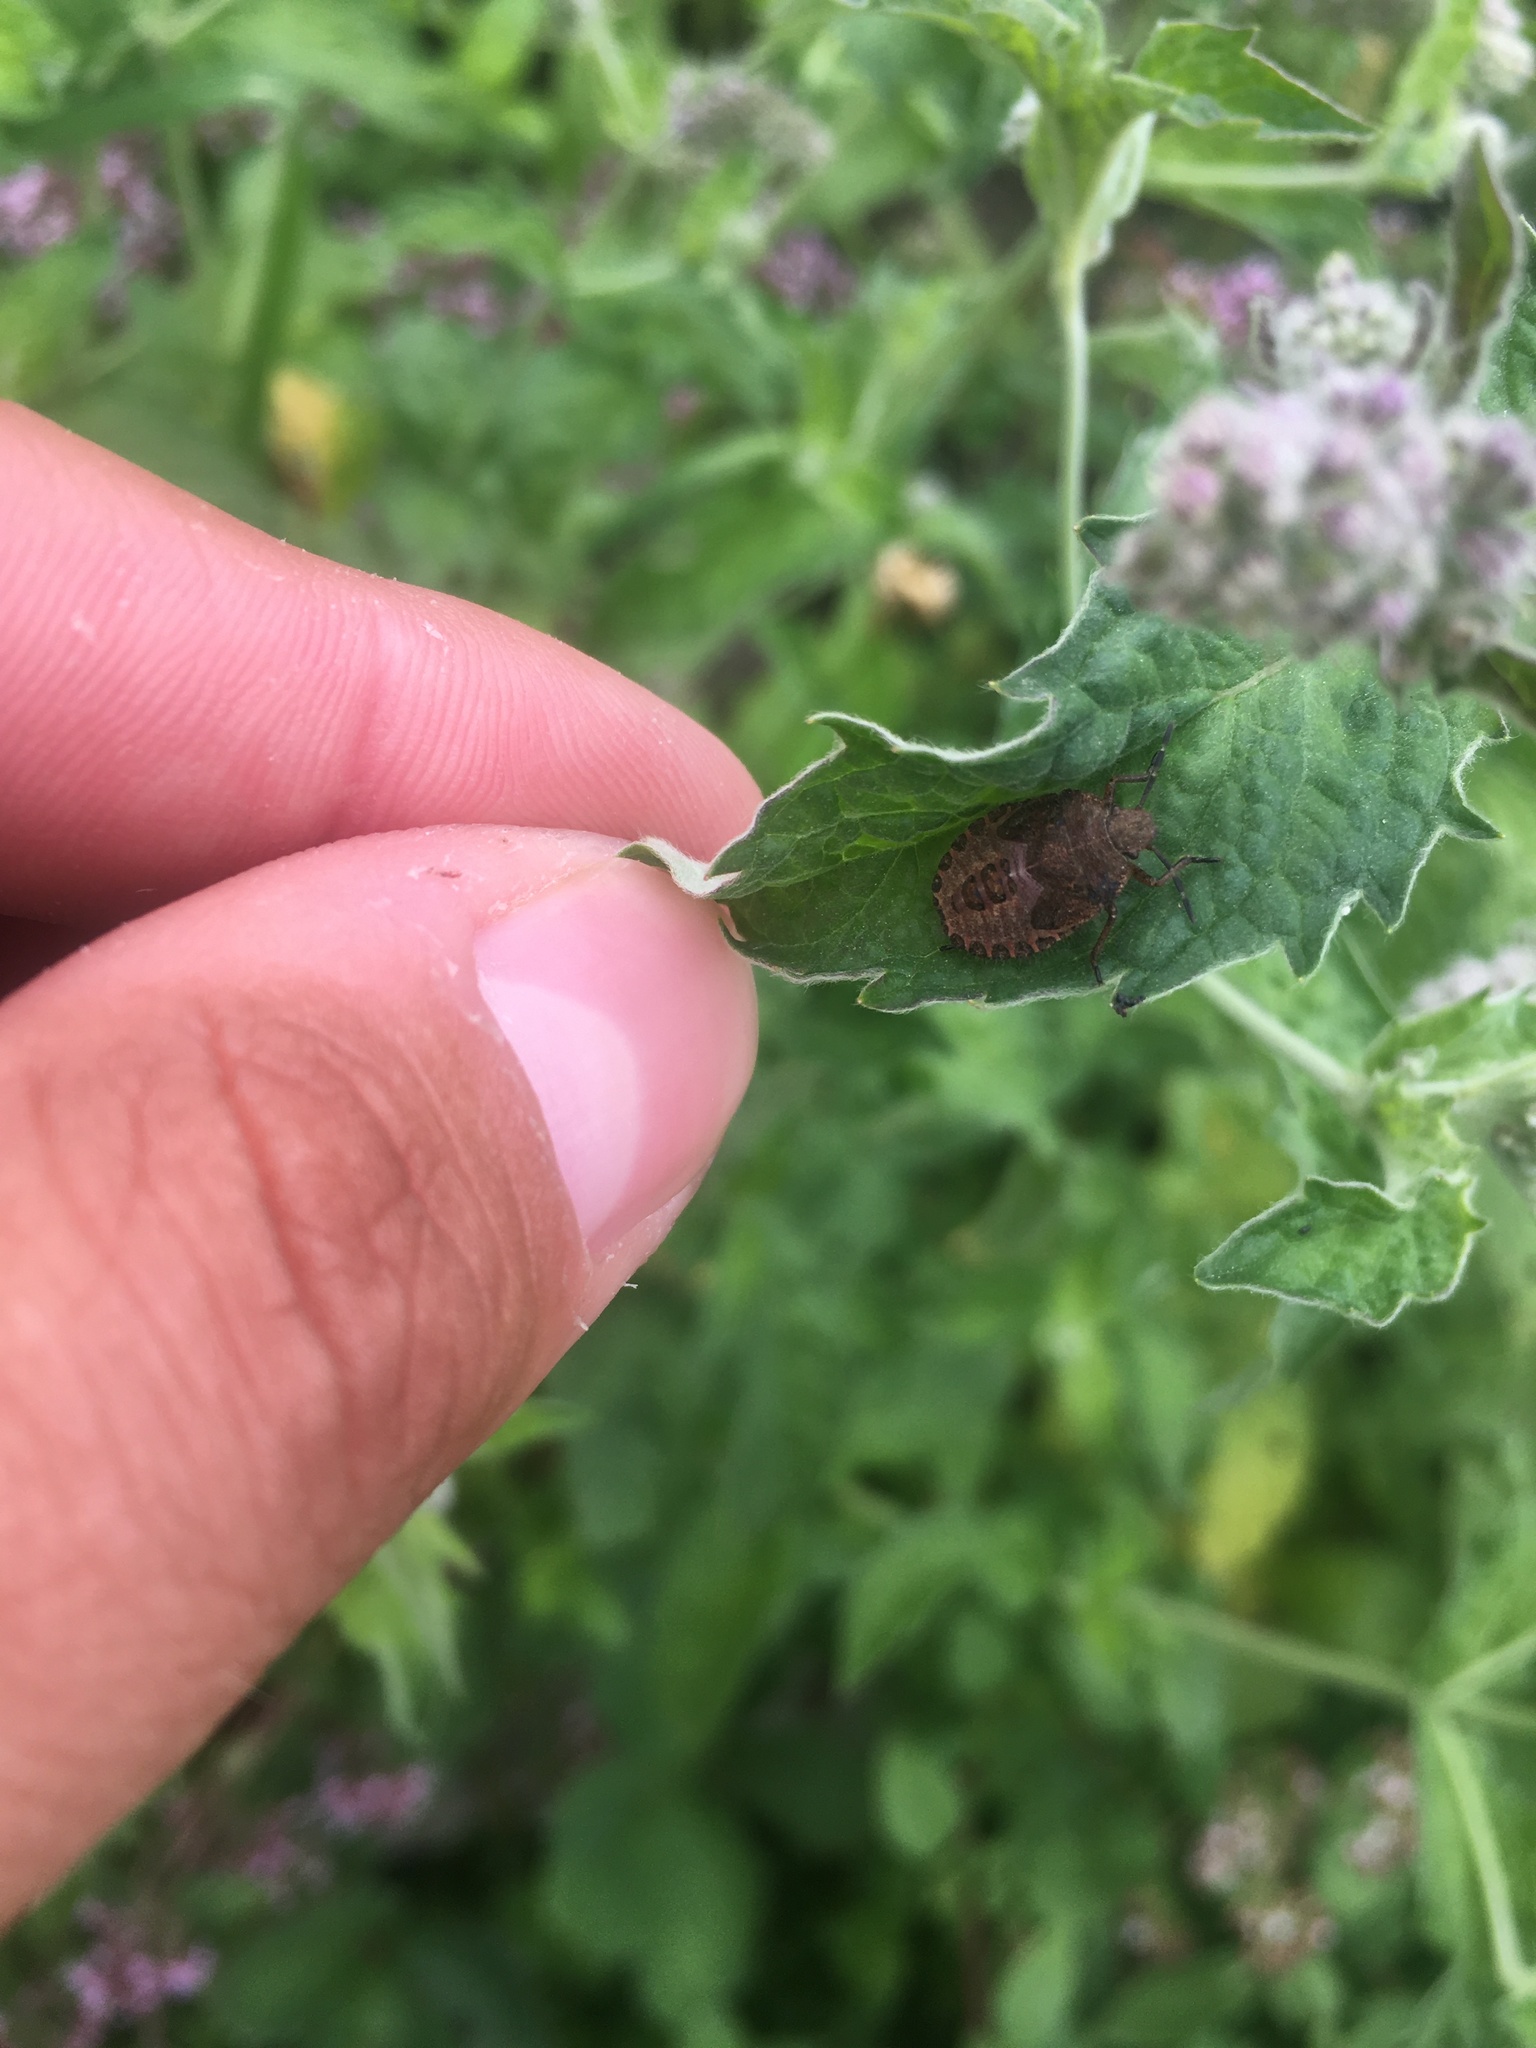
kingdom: Animalia
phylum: Arthropoda
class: Insecta
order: Hemiptera
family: Pentatomidae
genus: Dolycoris
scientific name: Dolycoris baccarum
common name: Sloe bug
